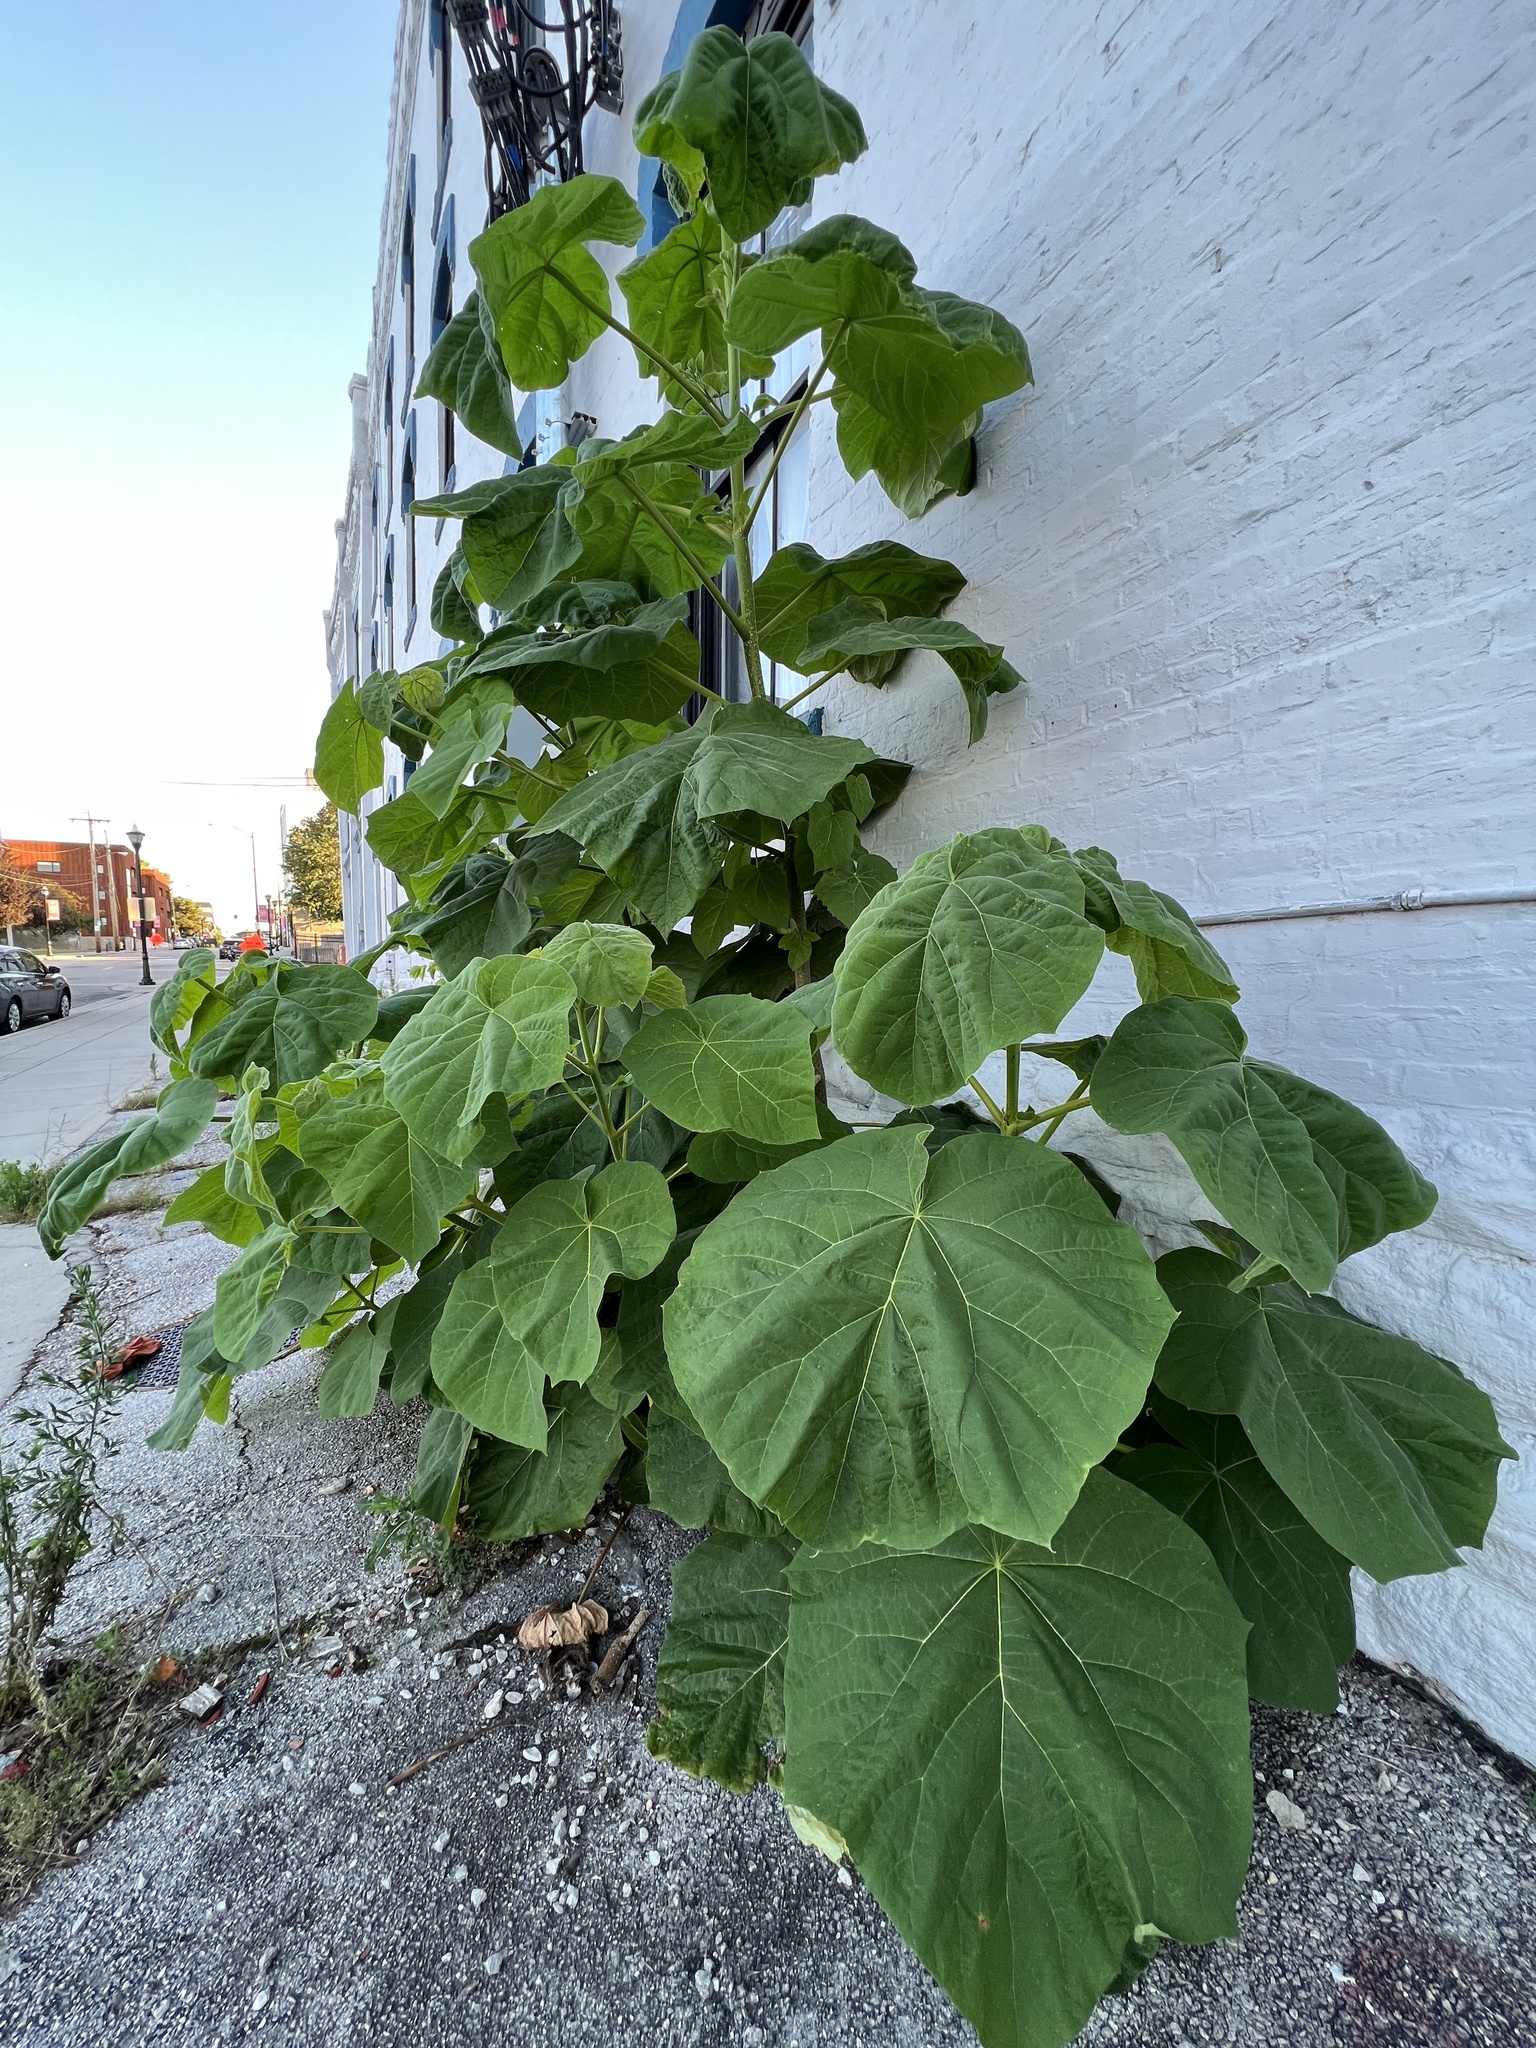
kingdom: Plantae
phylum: Tracheophyta
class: Magnoliopsida
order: Lamiales
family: Paulowniaceae
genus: Paulownia
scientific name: Paulownia tomentosa
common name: Foxglove-tree
